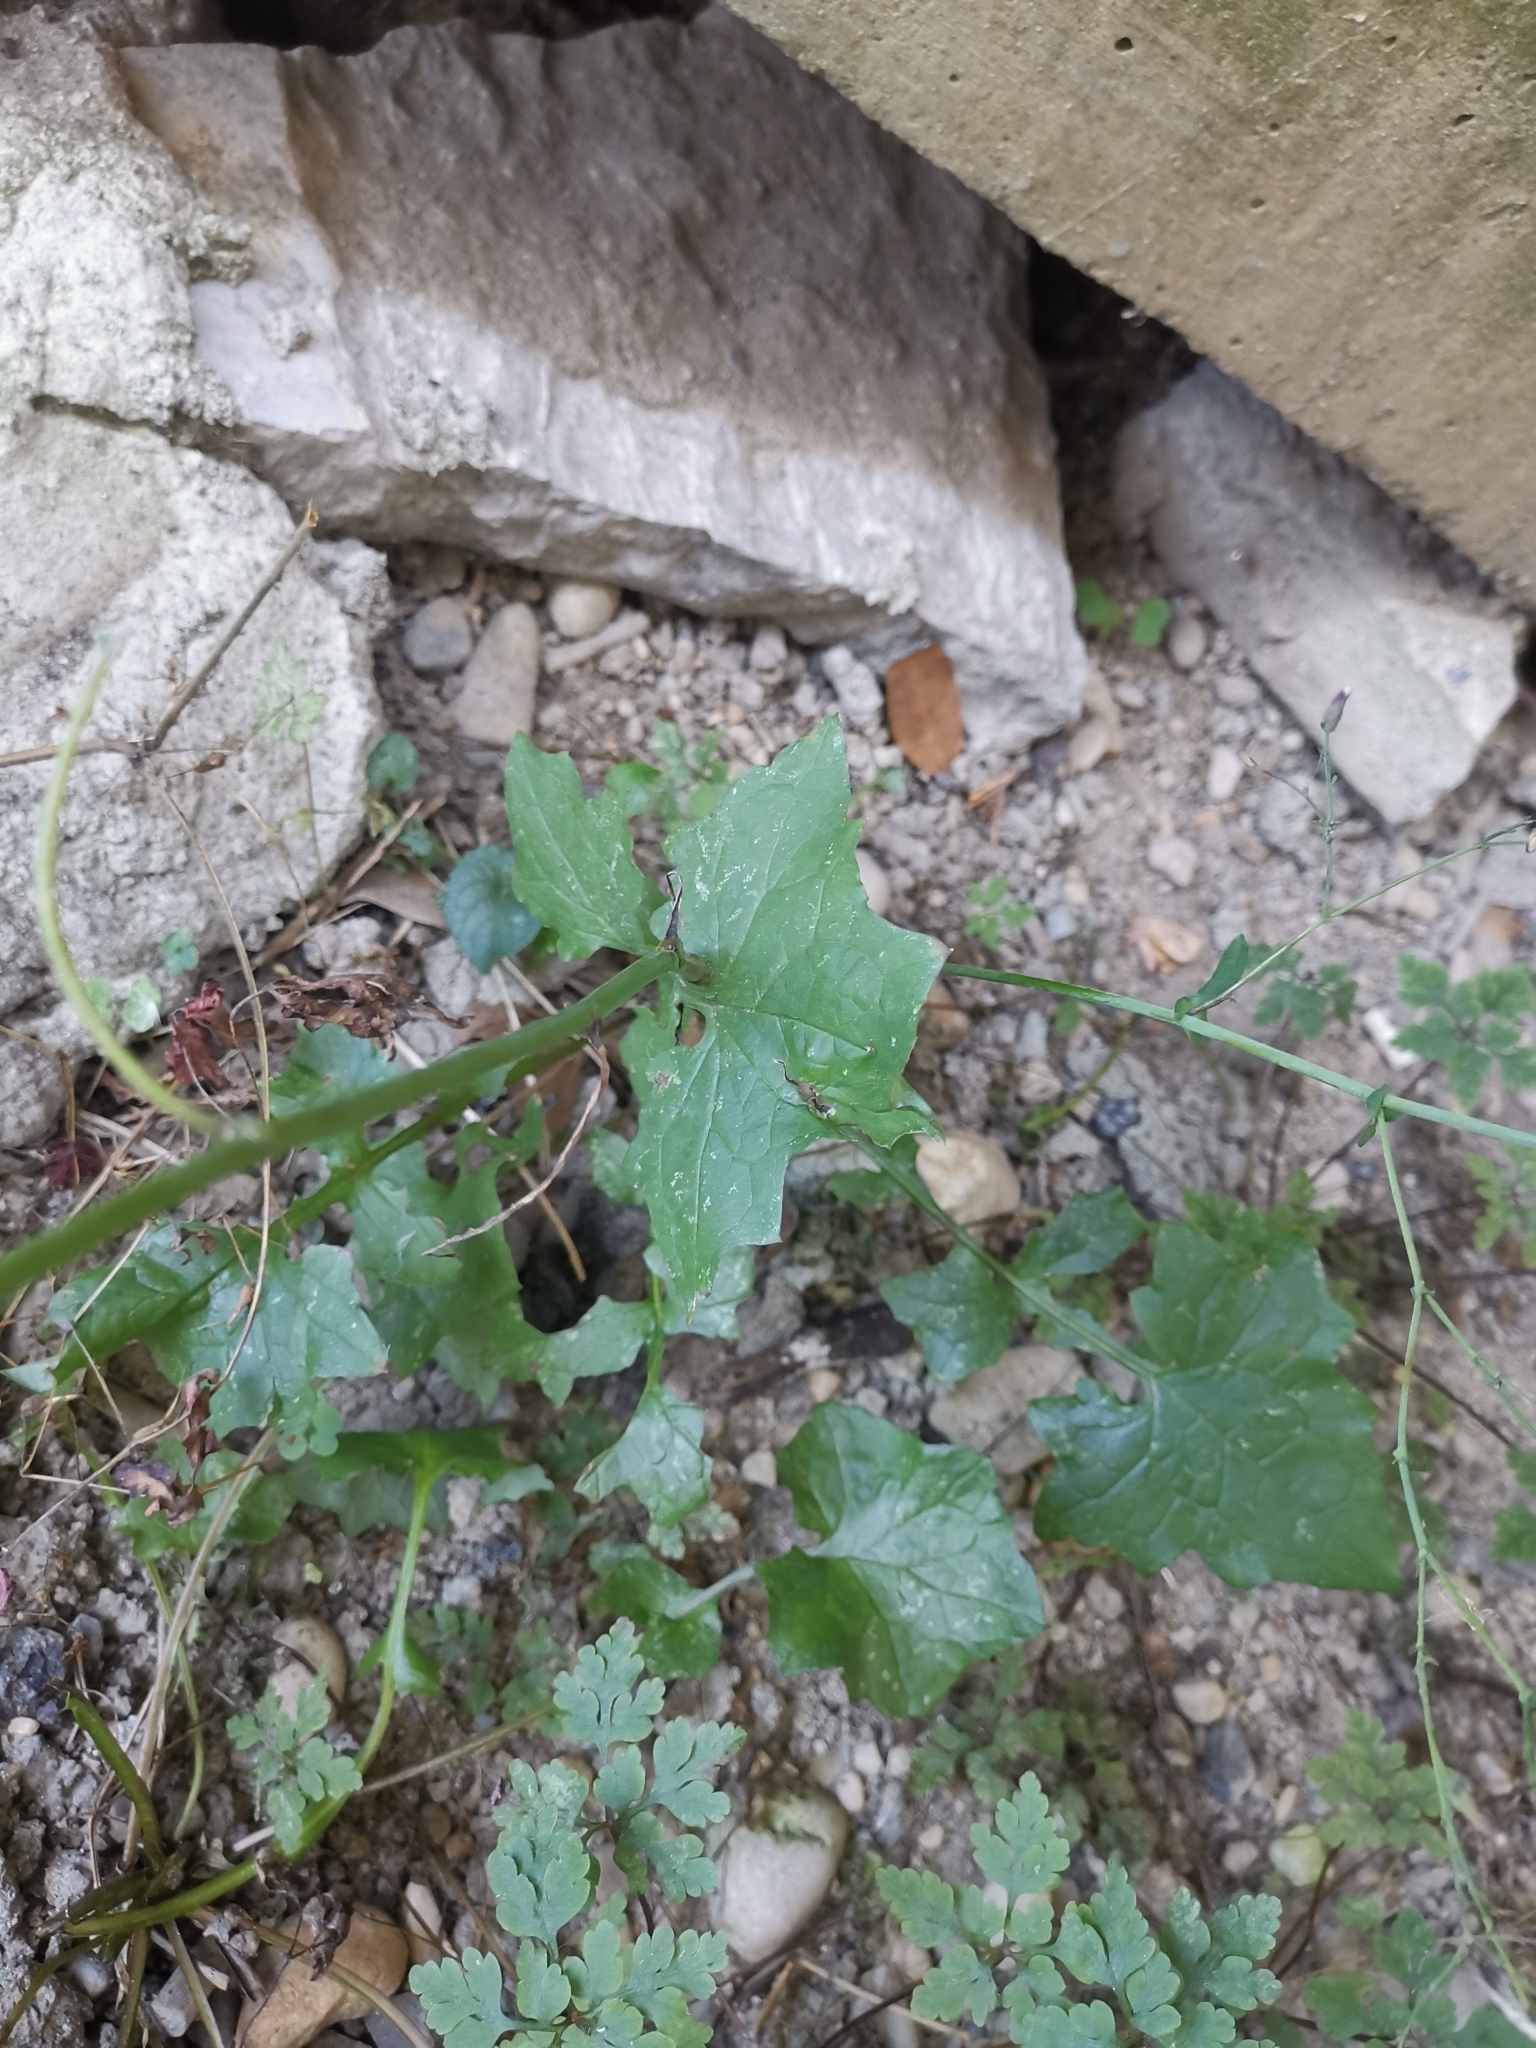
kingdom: Plantae
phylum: Tracheophyta
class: Magnoliopsida
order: Asterales
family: Asteraceae
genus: Mycelis
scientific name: Mycelis muralis
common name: Wall lettuce
